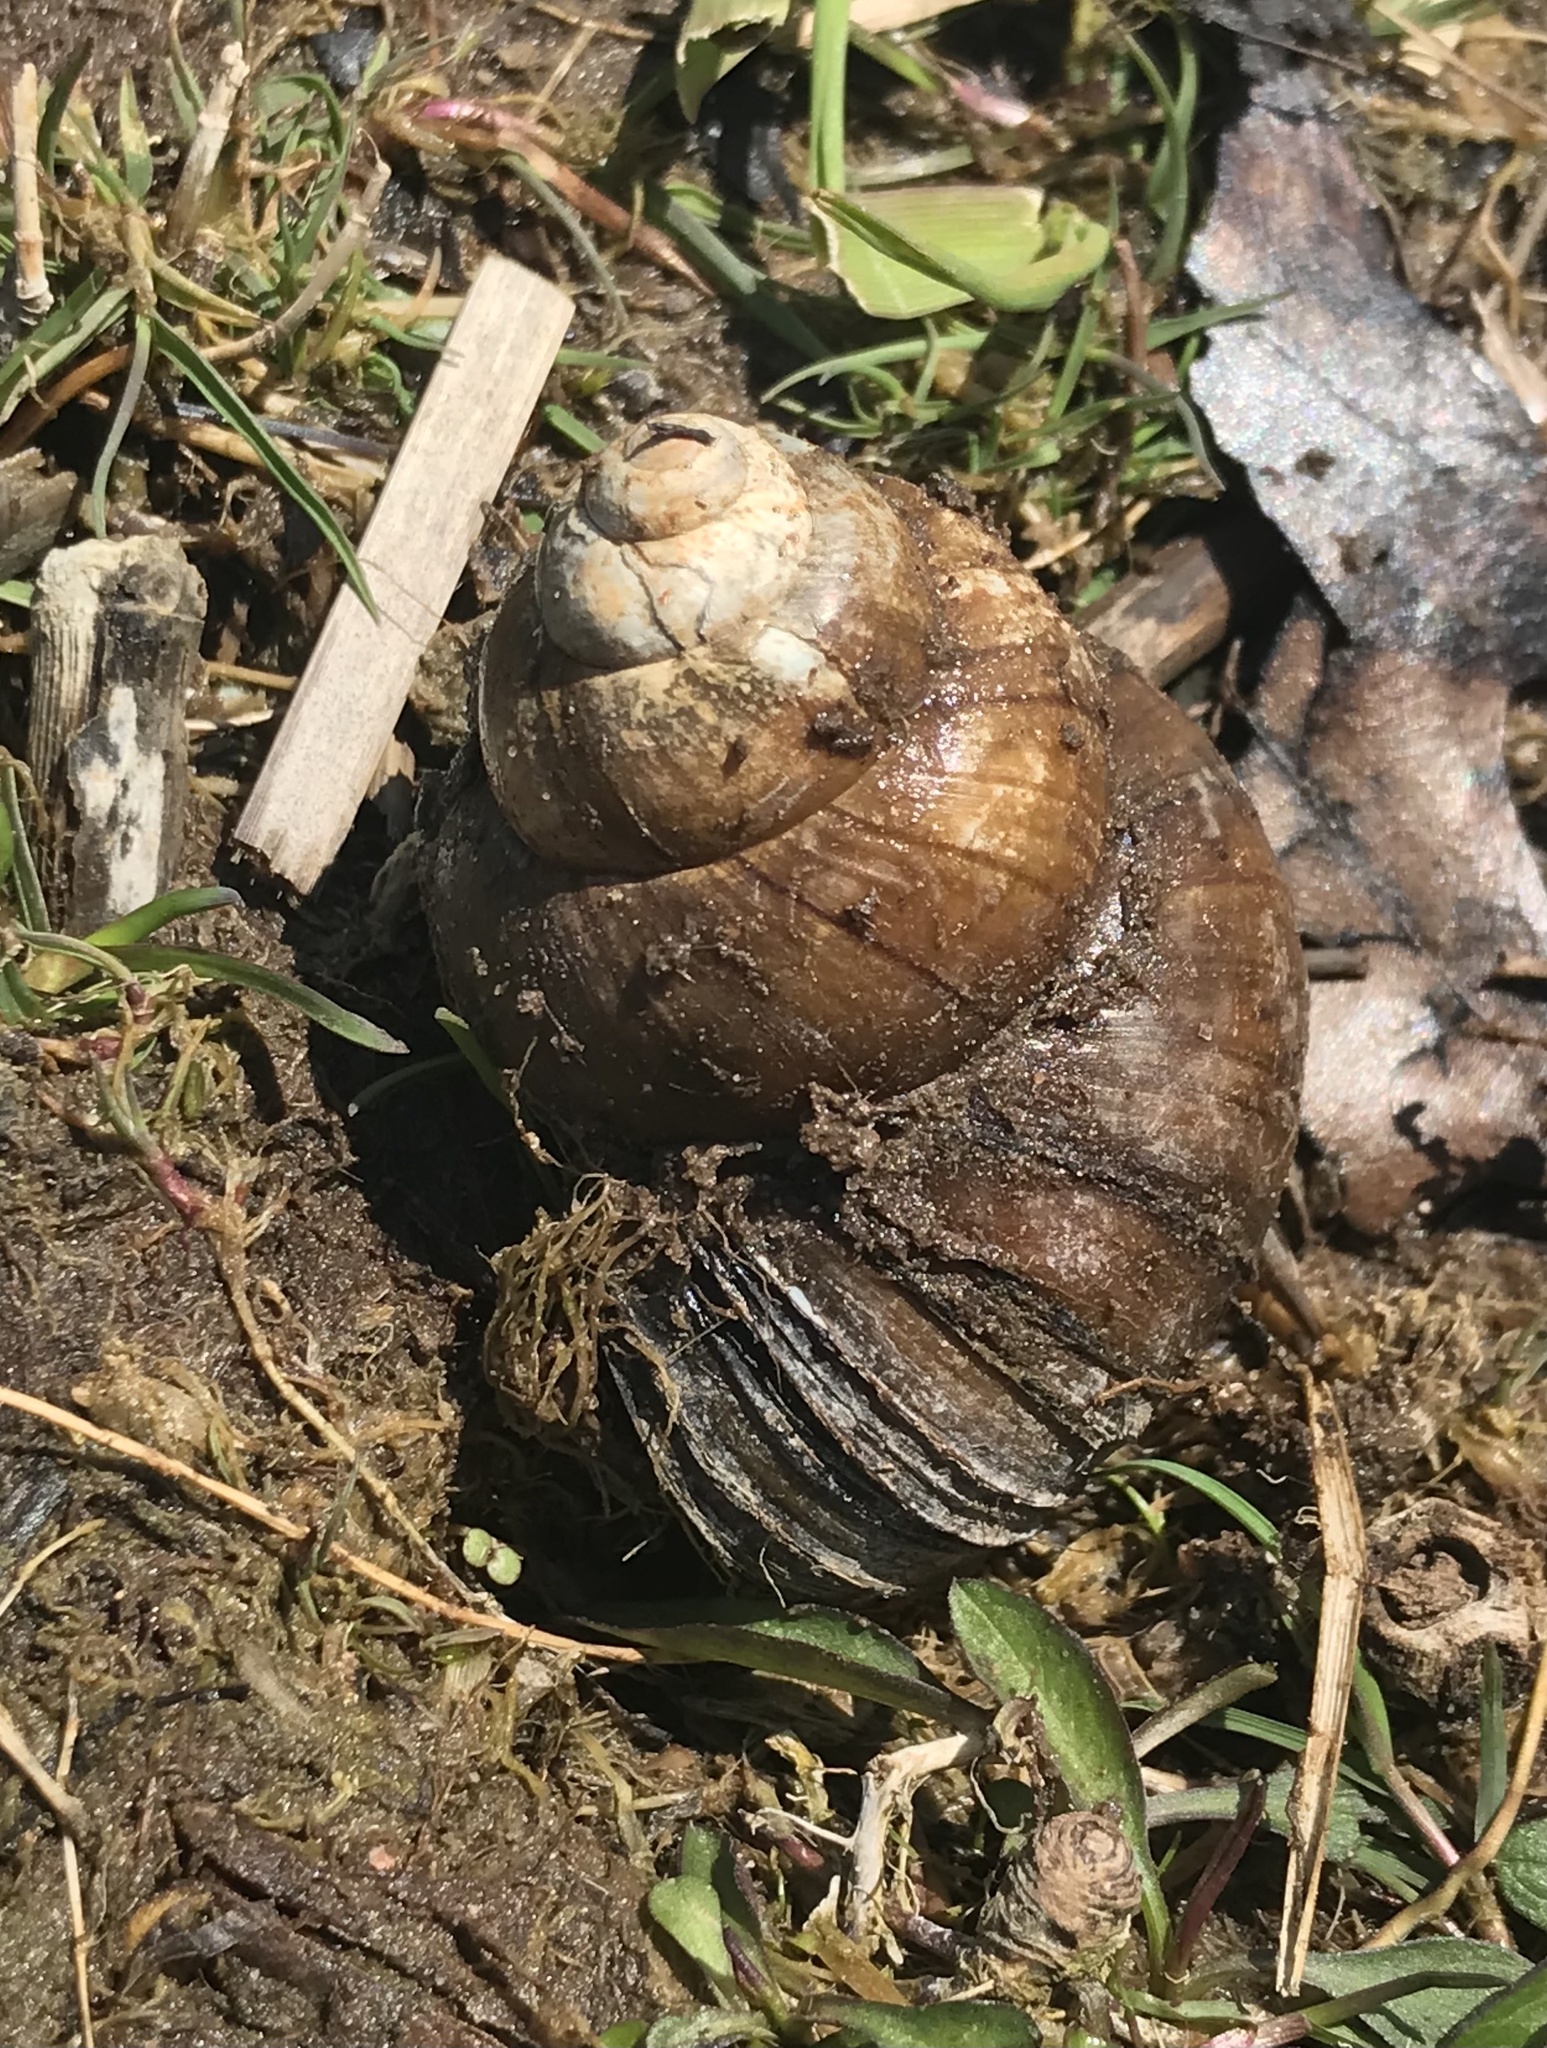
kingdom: Animalia
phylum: Mollusca
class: Gastropoda
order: Architaenioglossa
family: Viviparidae
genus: Cipangopaludina
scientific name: Cipangopaludina chinensis
